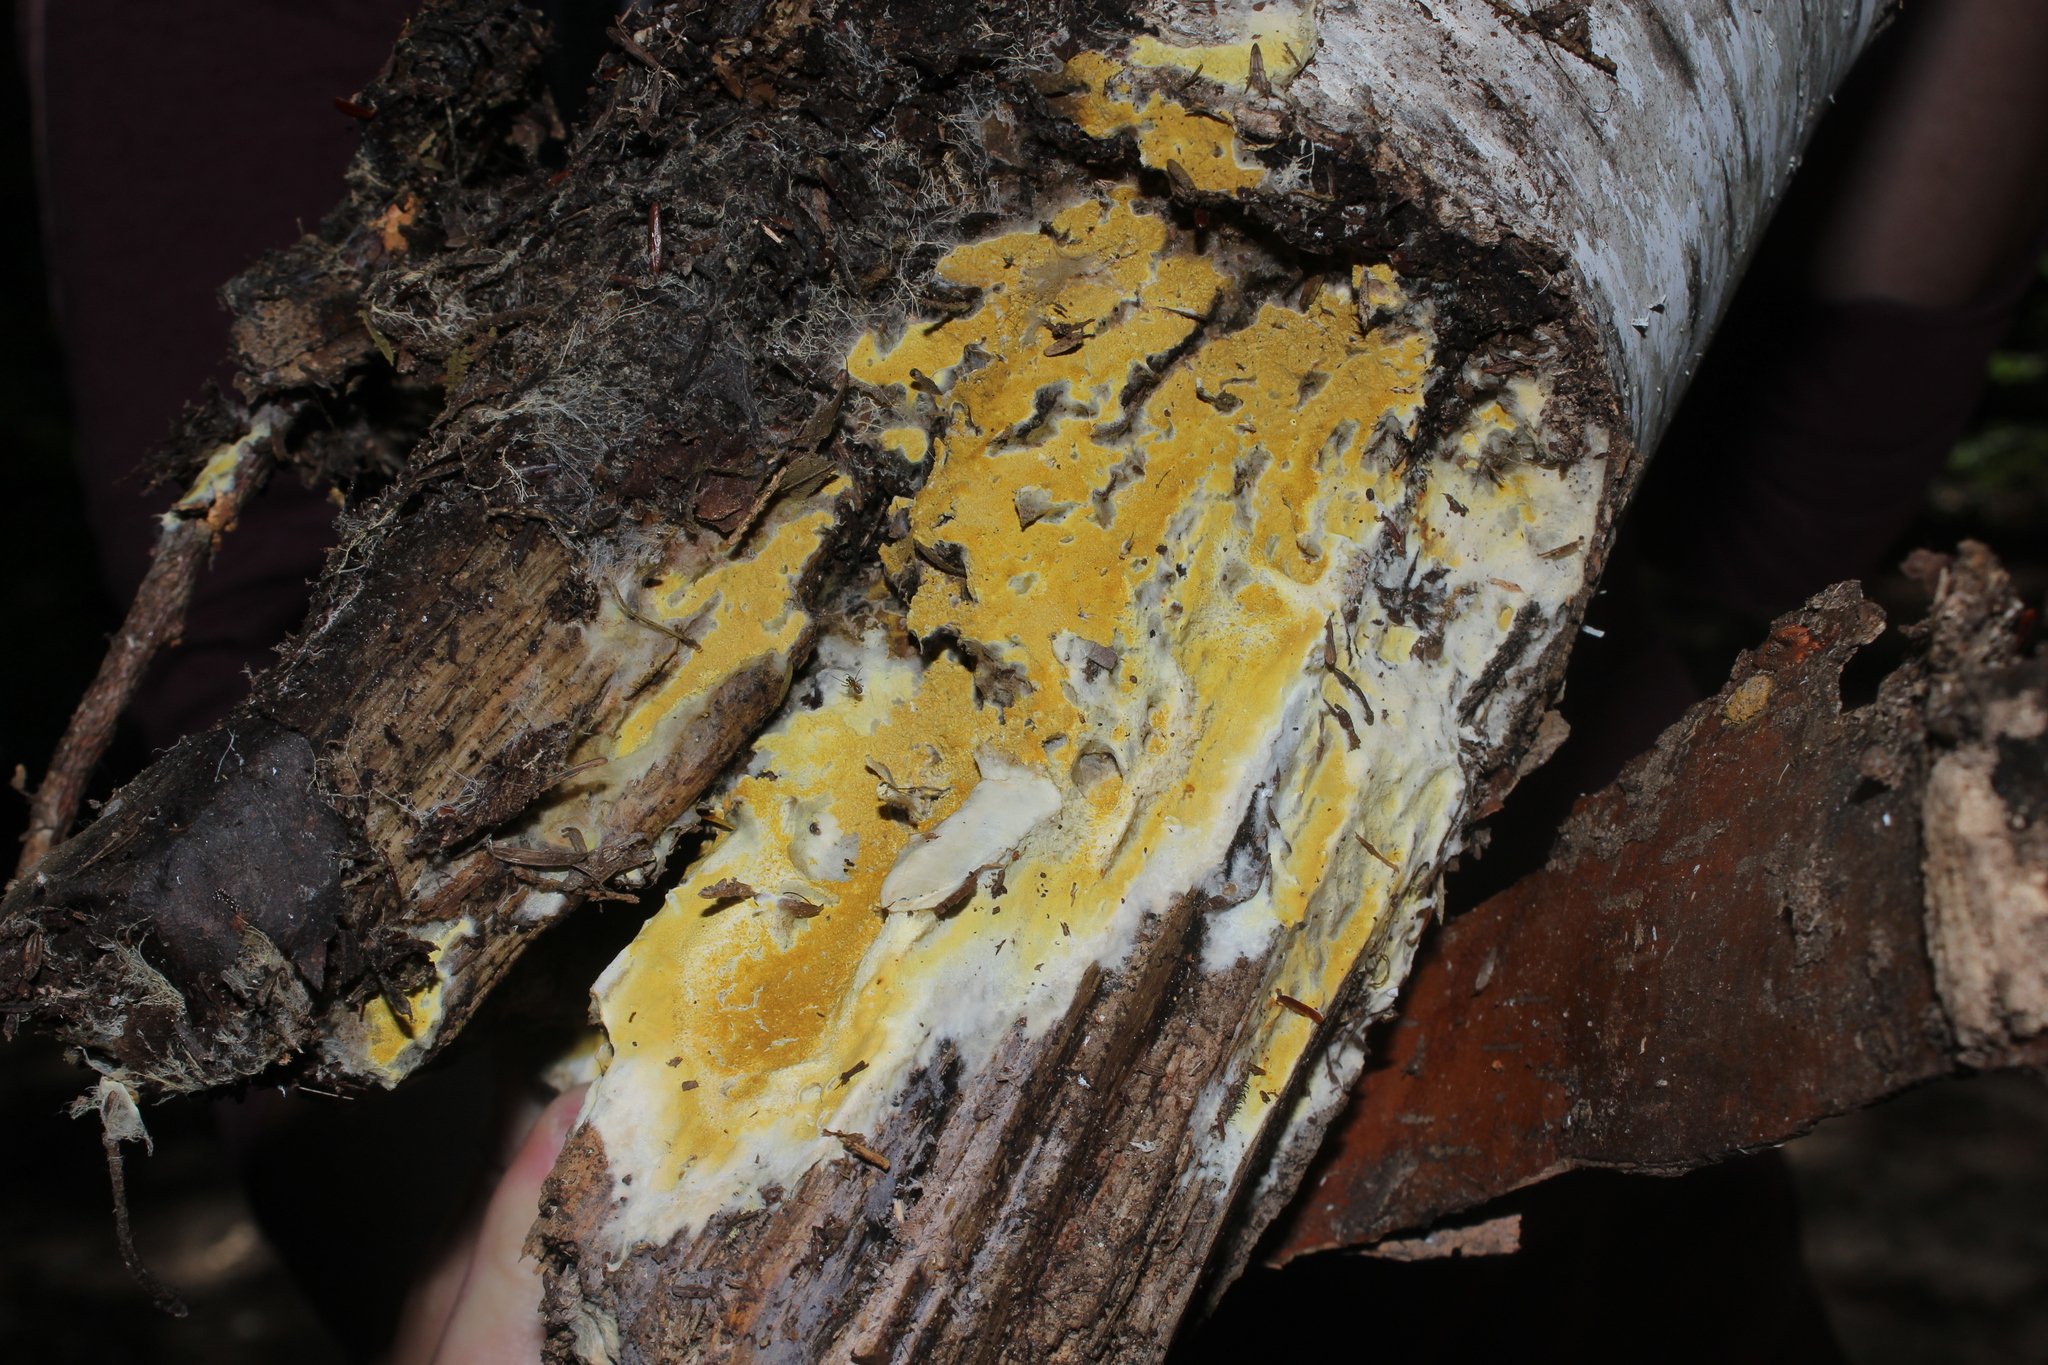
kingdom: Fungi
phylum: Basidiomycota
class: Agaricomycetes
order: Boletales
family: Coniophoraceae
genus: Penttilamyces
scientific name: Penttilamyces olivascens
